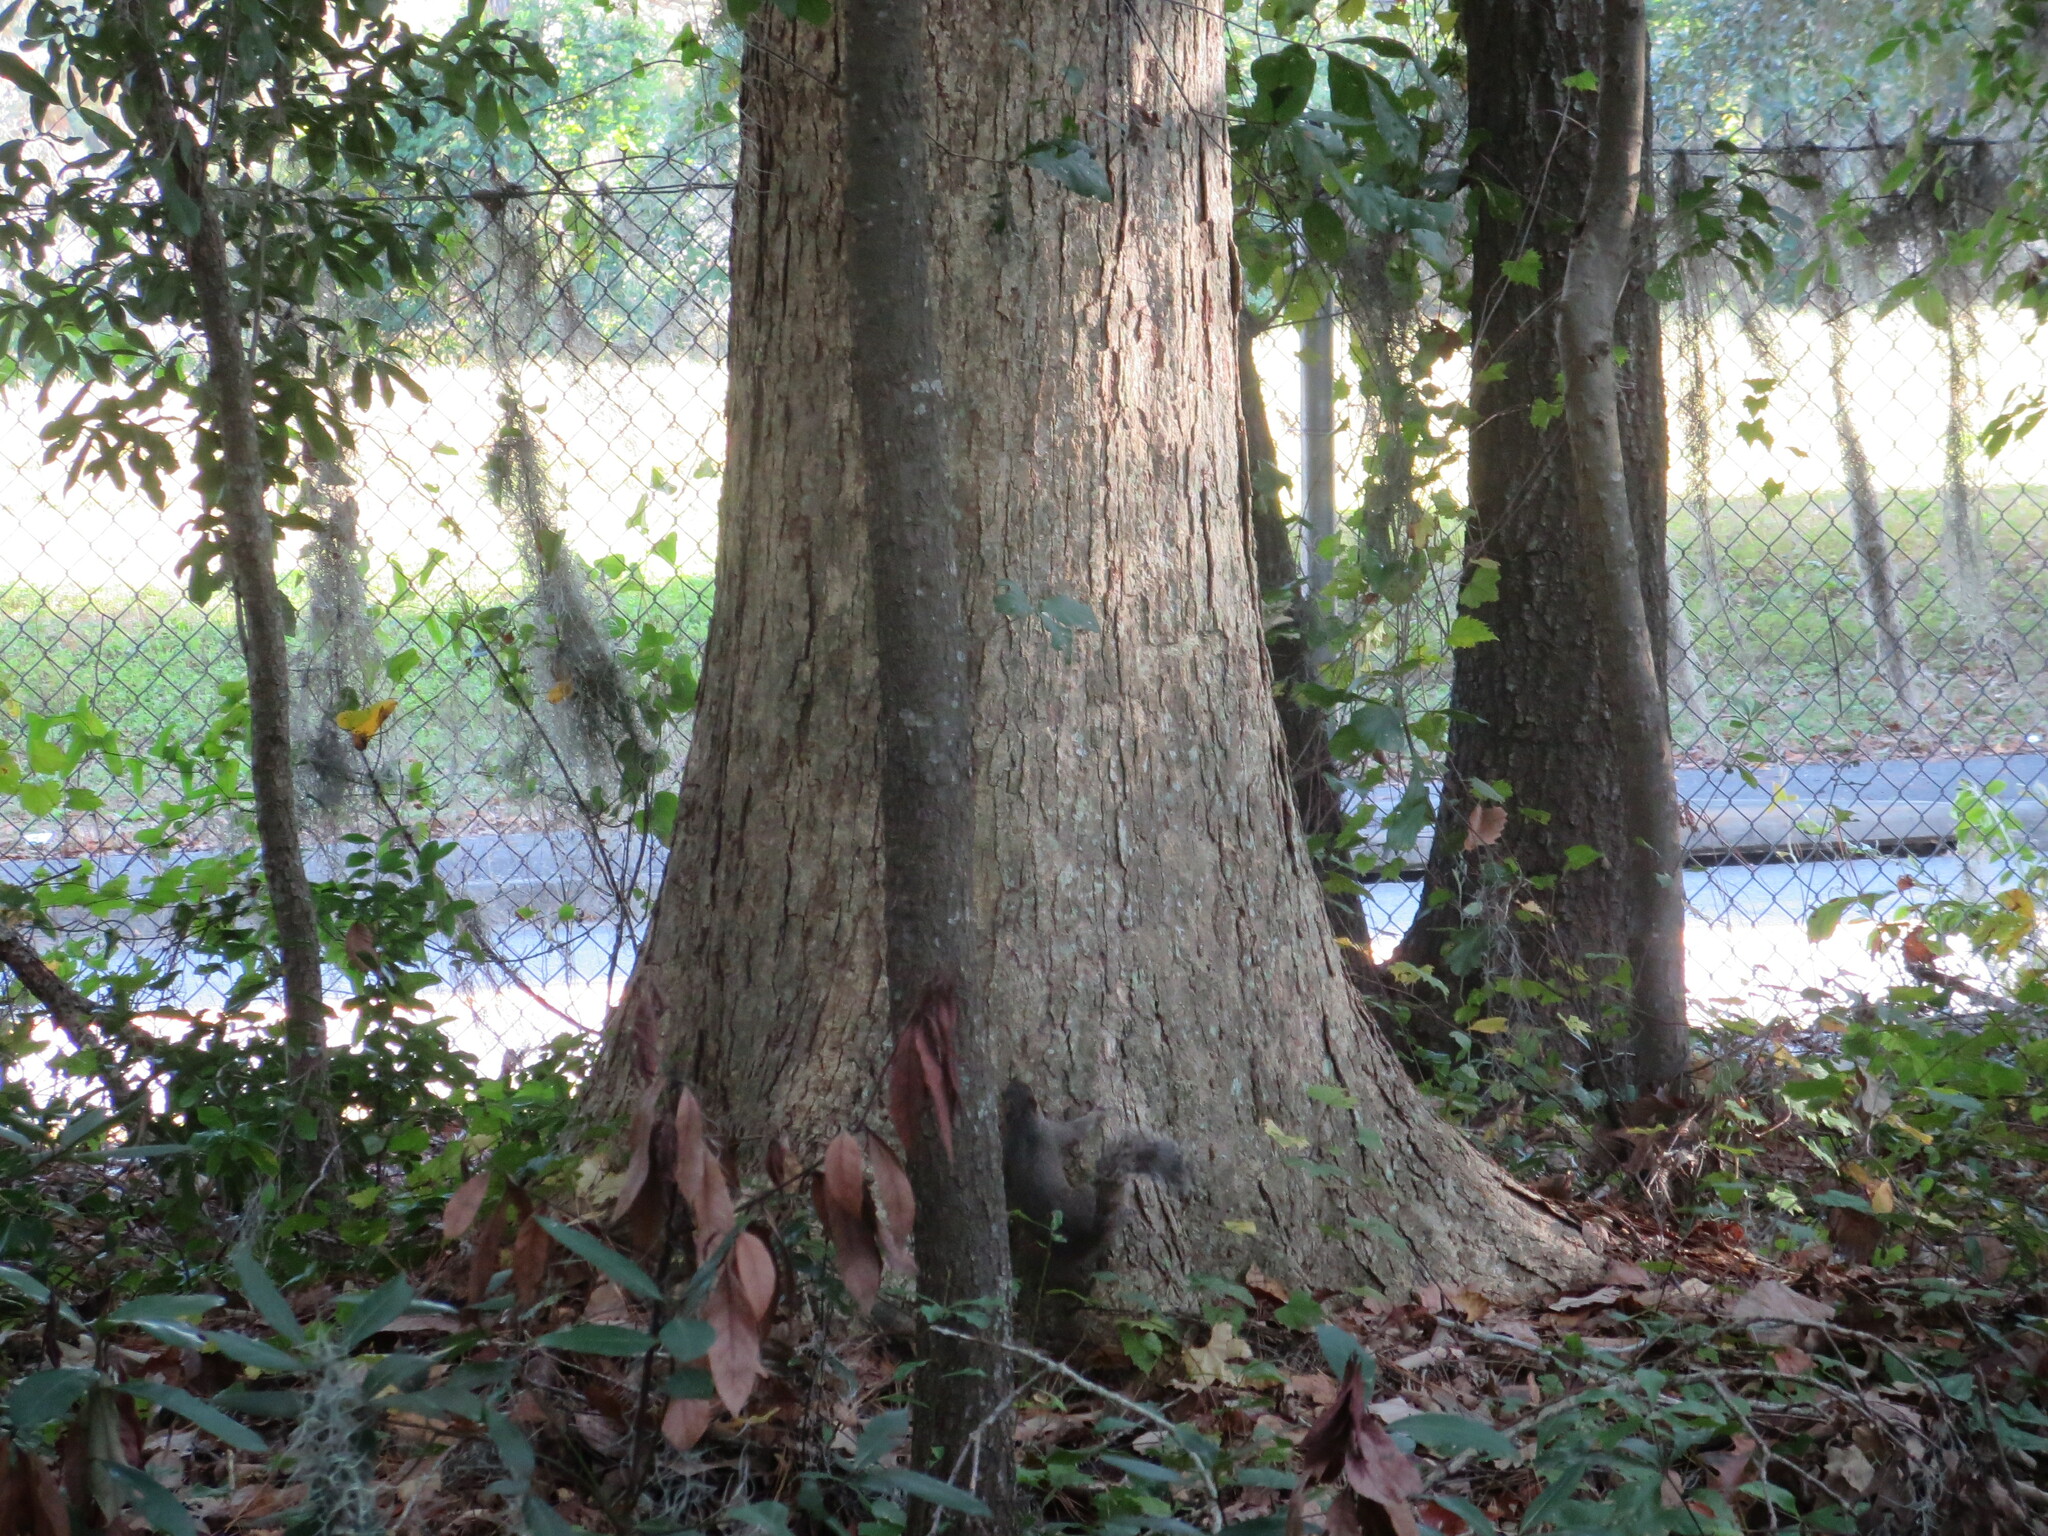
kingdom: Plantae
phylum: Tracheophyta
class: Magnoliopsida
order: Fagales
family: Fagaceae
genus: Quercus
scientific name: Quercus michauxii
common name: Swamp chestnut oak
